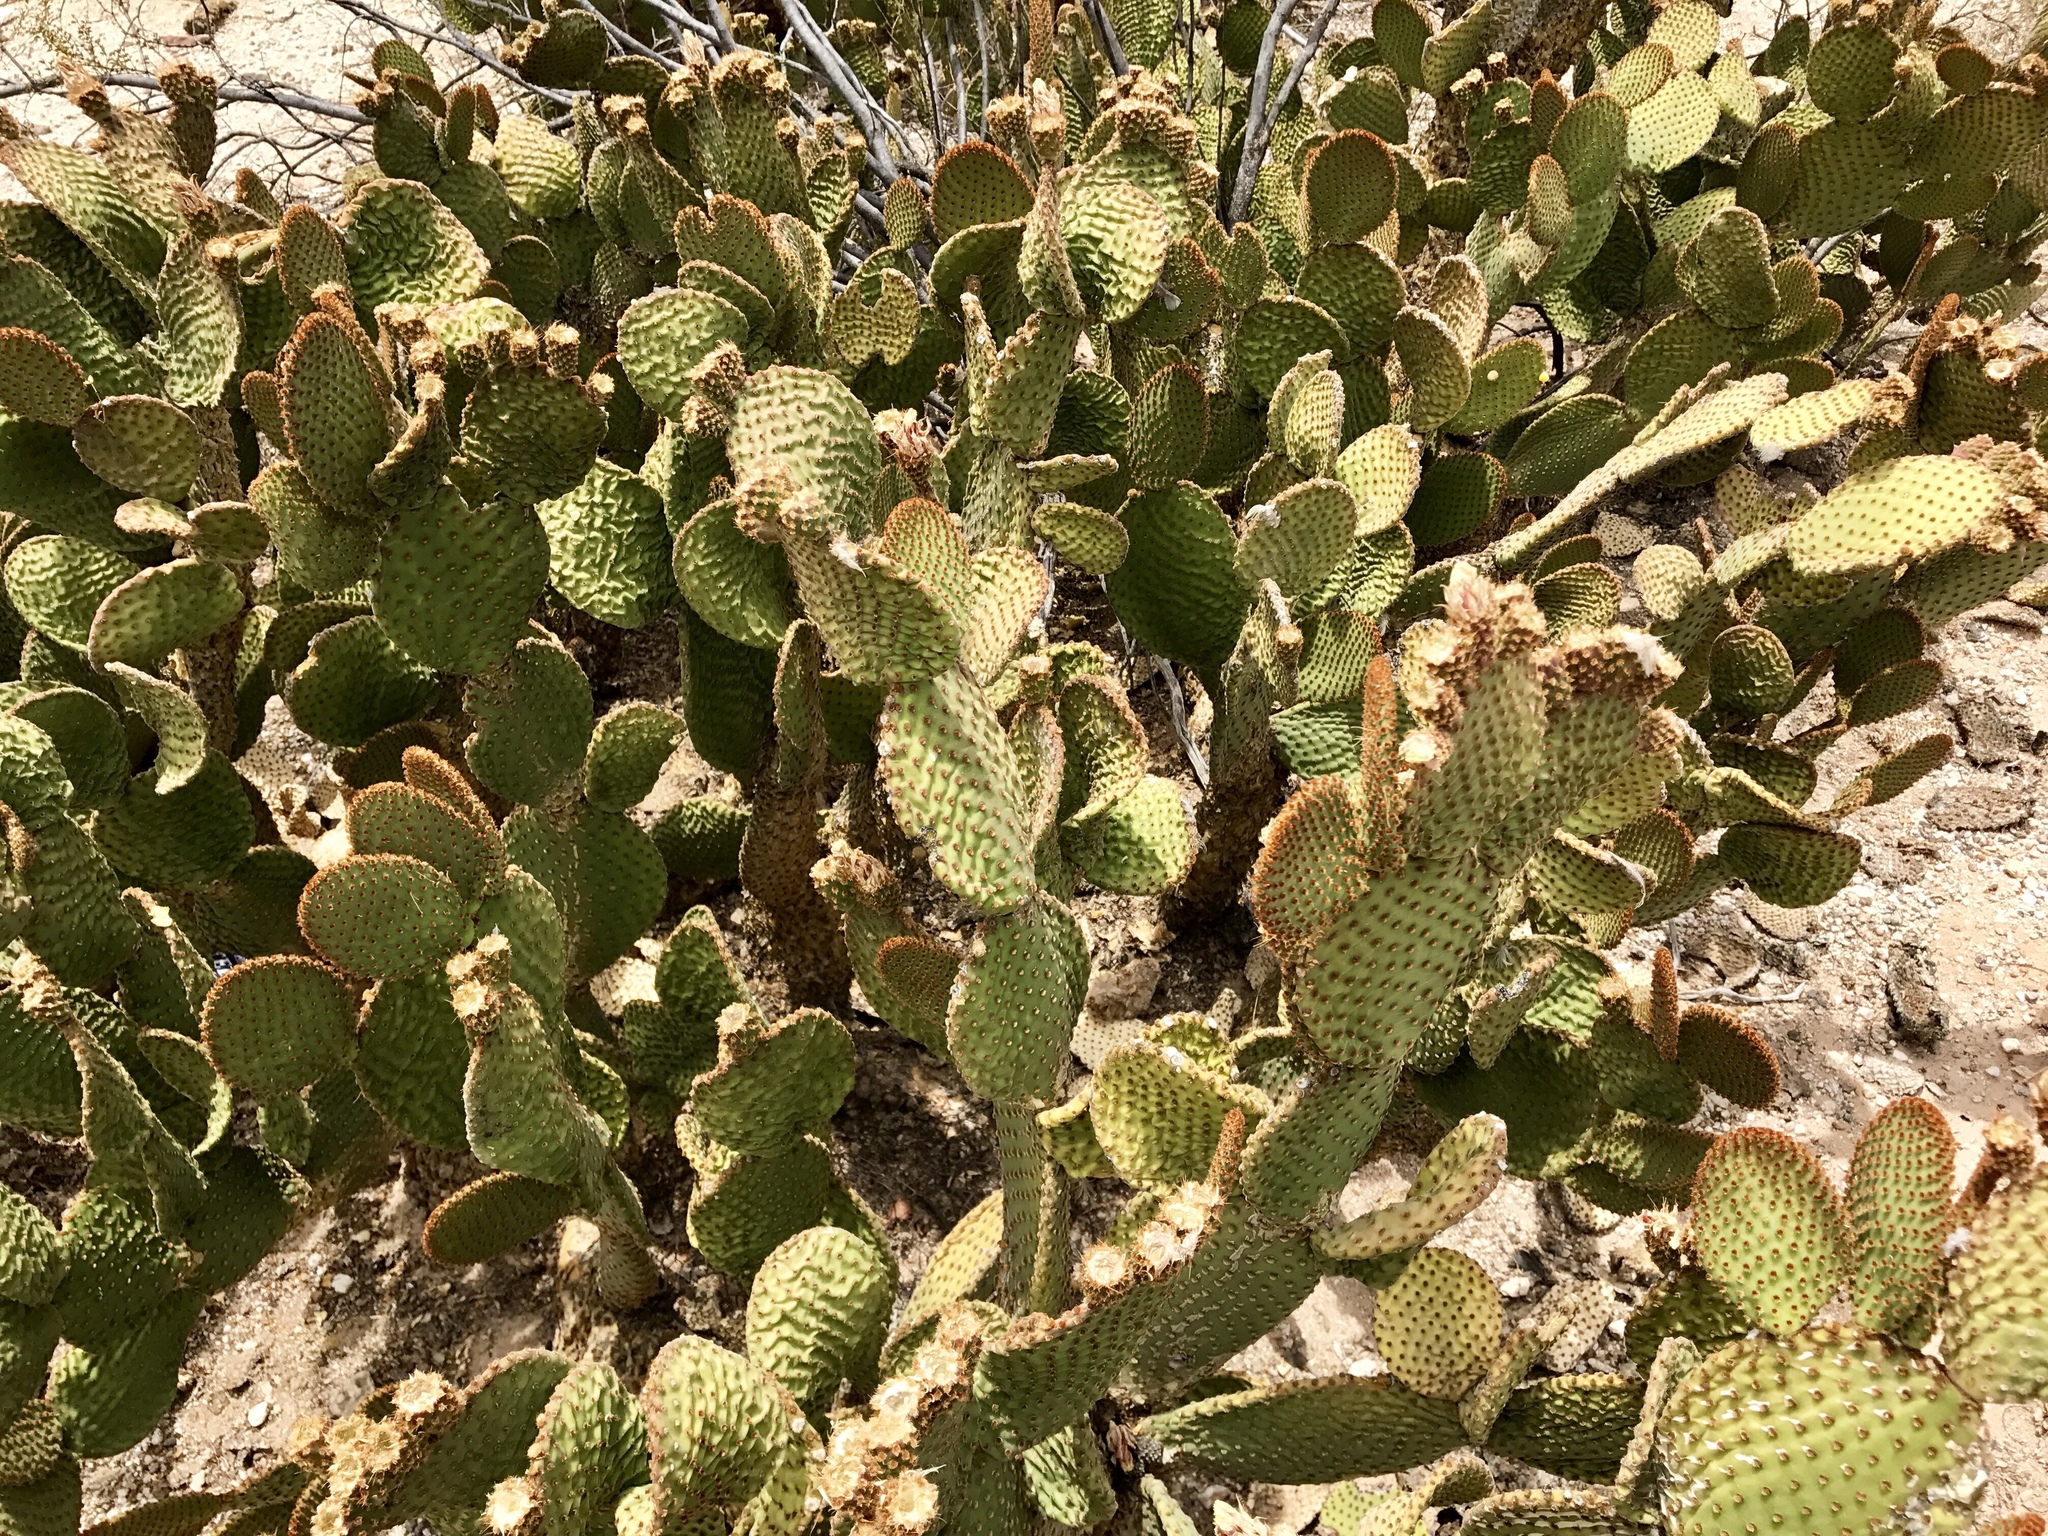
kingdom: Plantae
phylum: Tracheophyta
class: Magnoliopsida
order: Caryophyllales
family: Cactaceae
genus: Opuntia
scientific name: Opuntia microdasys
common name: Angel's-wings
